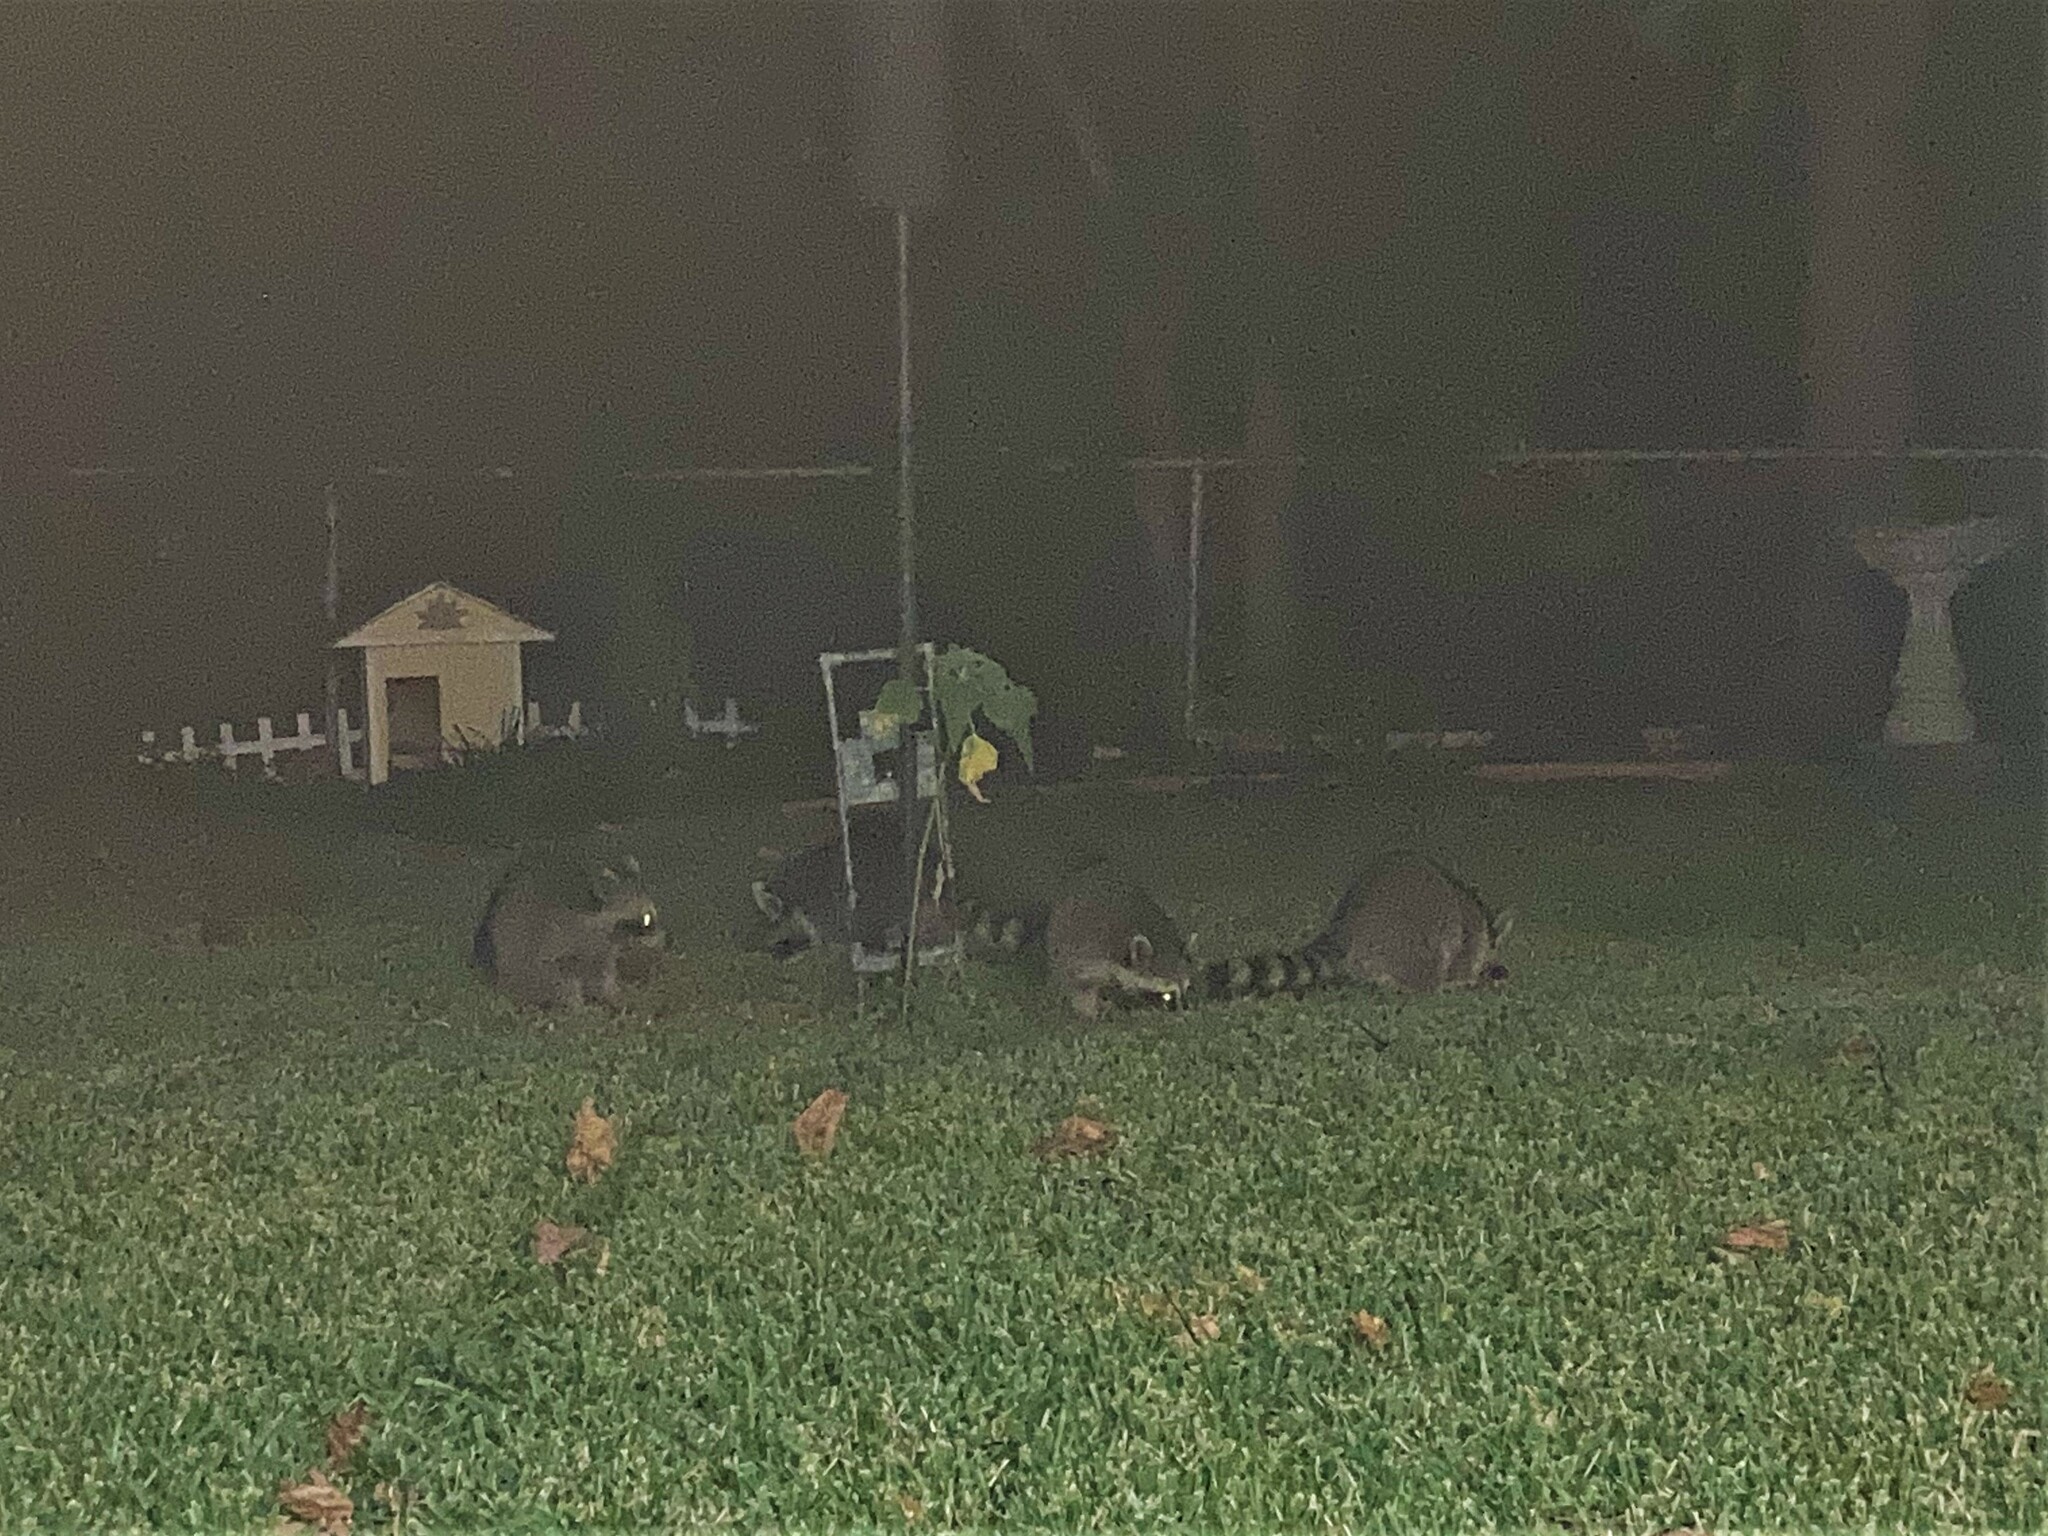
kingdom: Animalia
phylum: Chordata
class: Mammalia
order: Carnivora
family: Procyonidae
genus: Procyon
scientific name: Procyon lotor
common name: Raccoon
